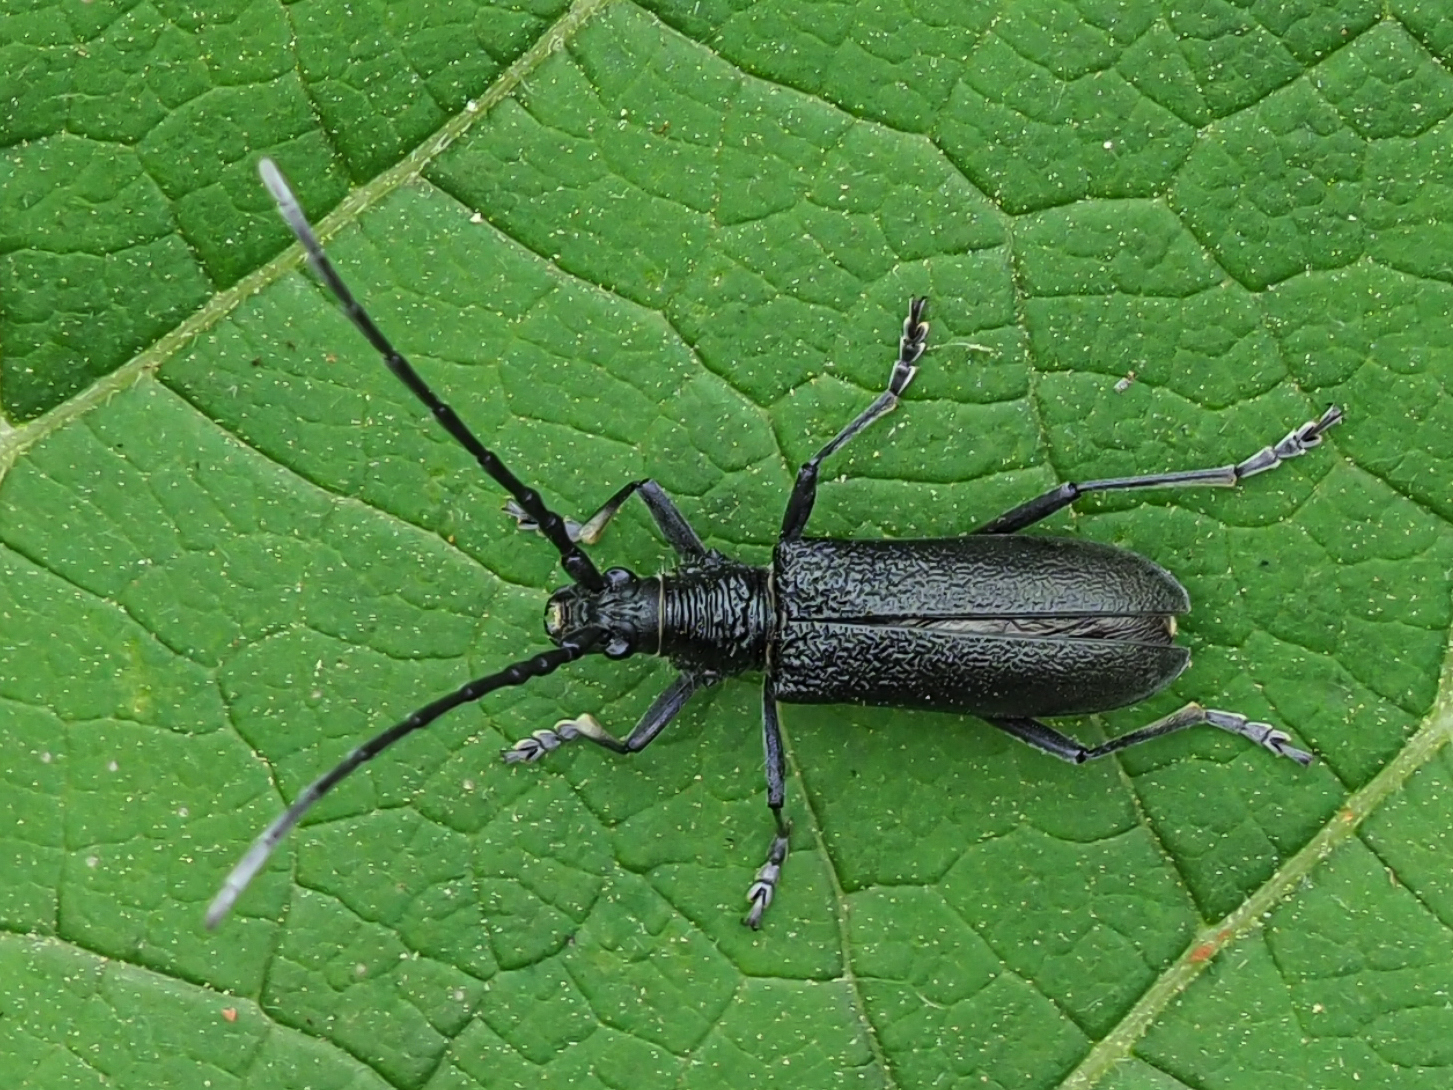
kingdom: Animalia
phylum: Arthropoda
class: Insecta
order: Coleoptera
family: Cerambycidae
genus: Cerambyx
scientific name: Cerambyx scopolii
